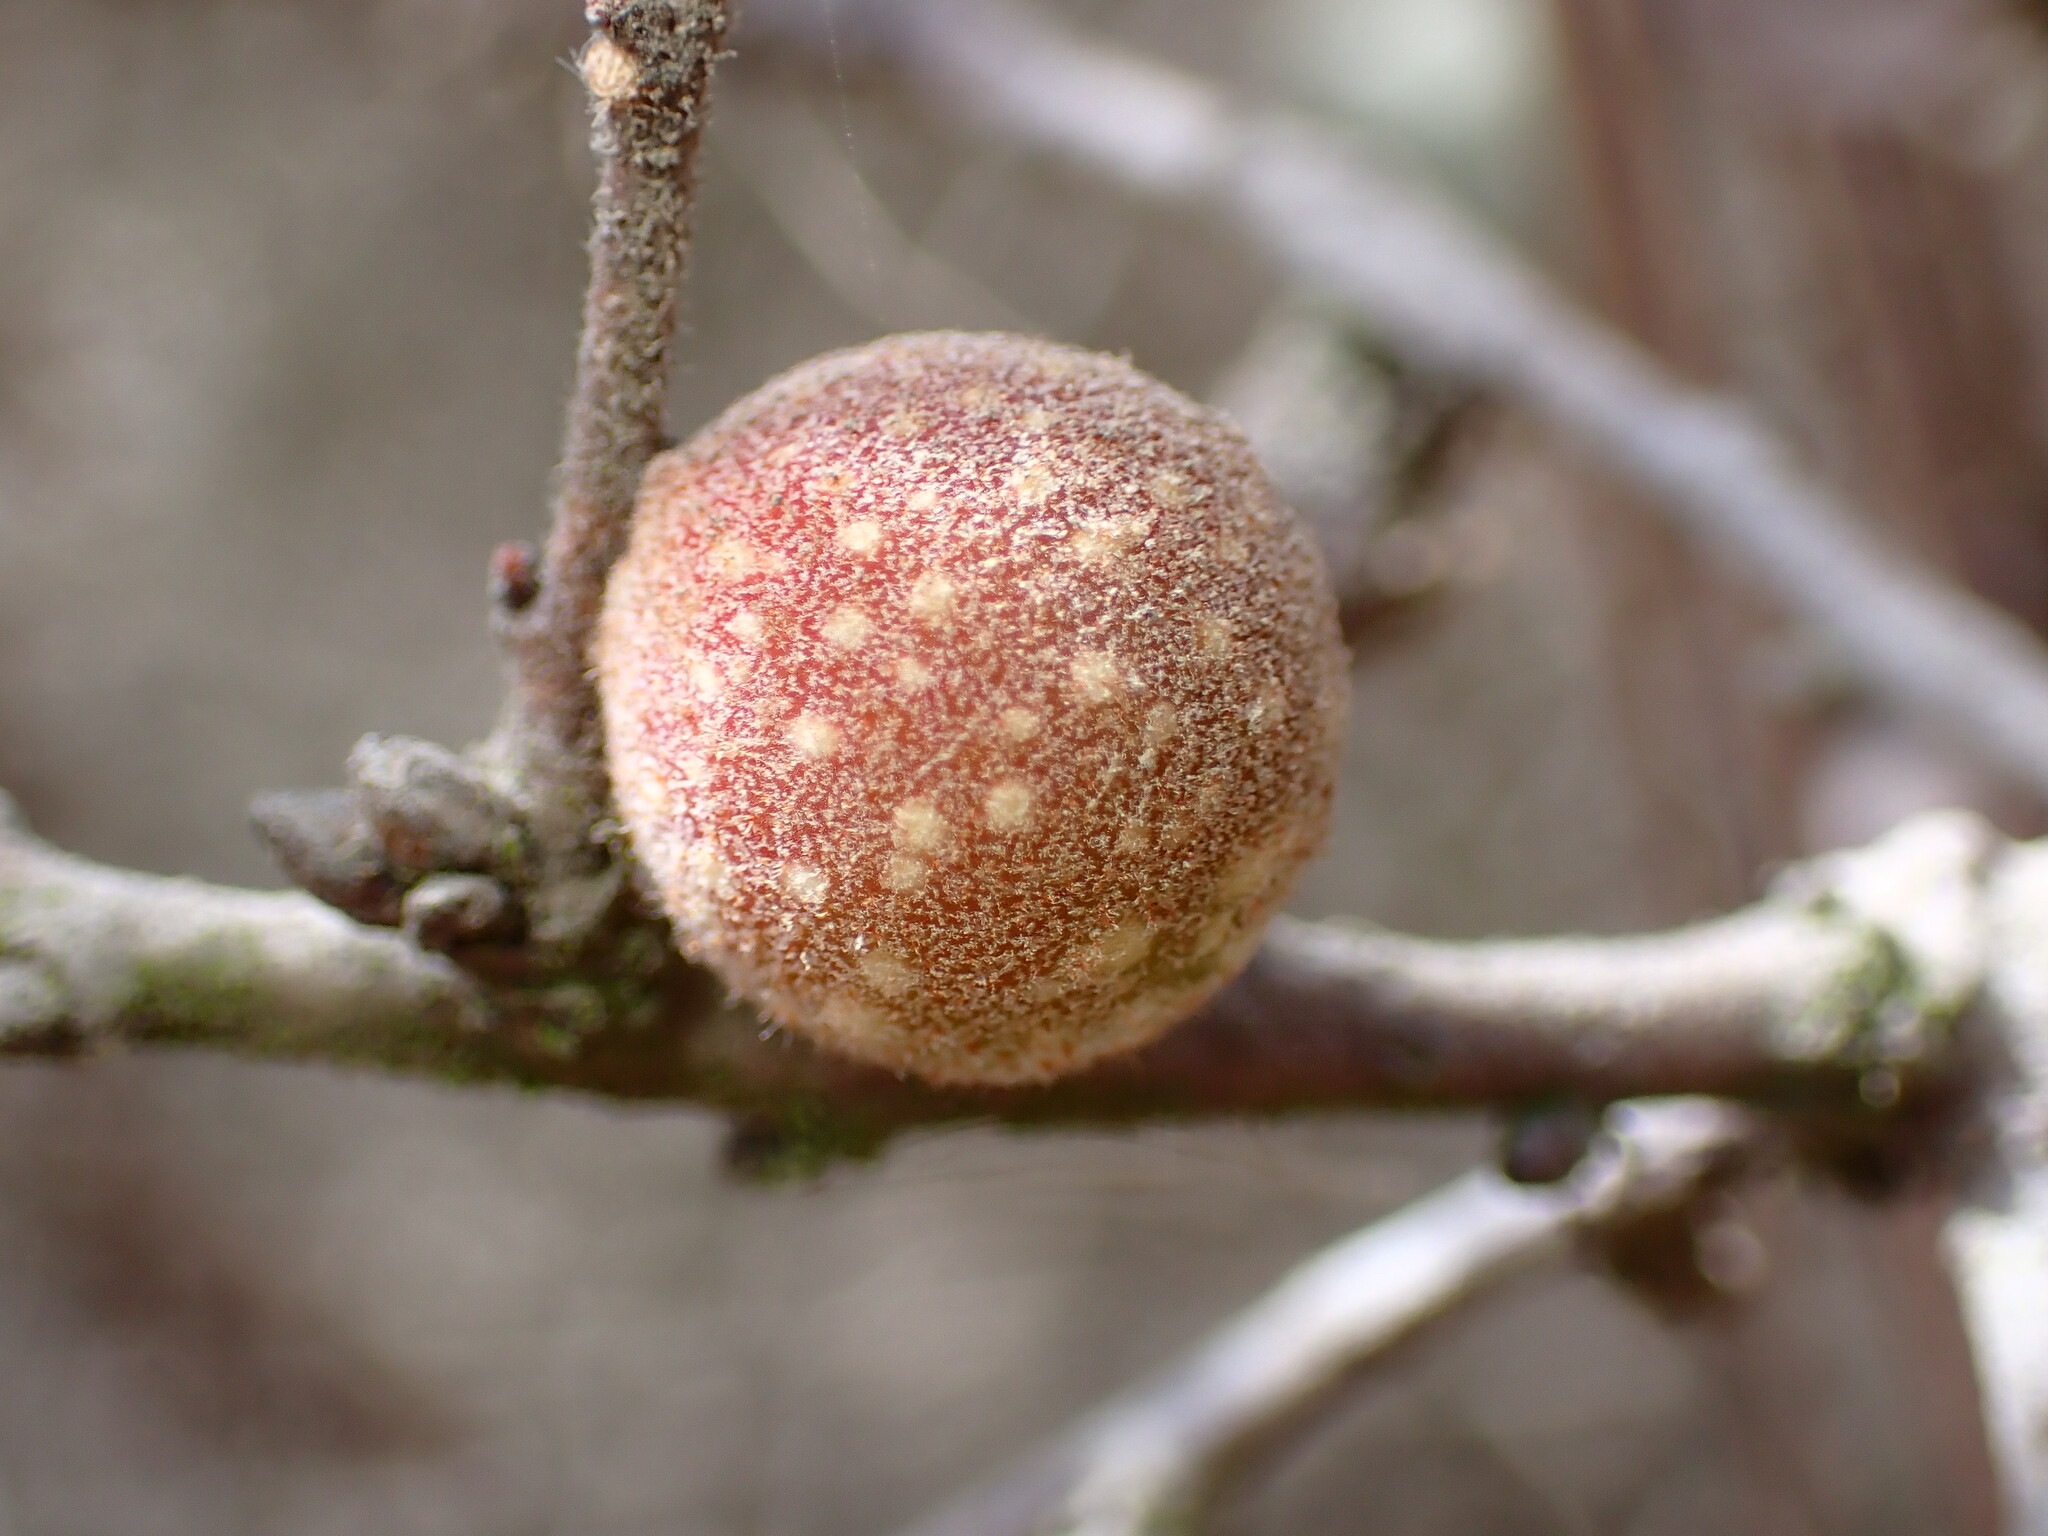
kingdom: Animalia
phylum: Arthropoda
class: Insecta
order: Hymenoptera
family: Cynipidae
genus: Burnettweldia
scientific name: Burnettweldia
